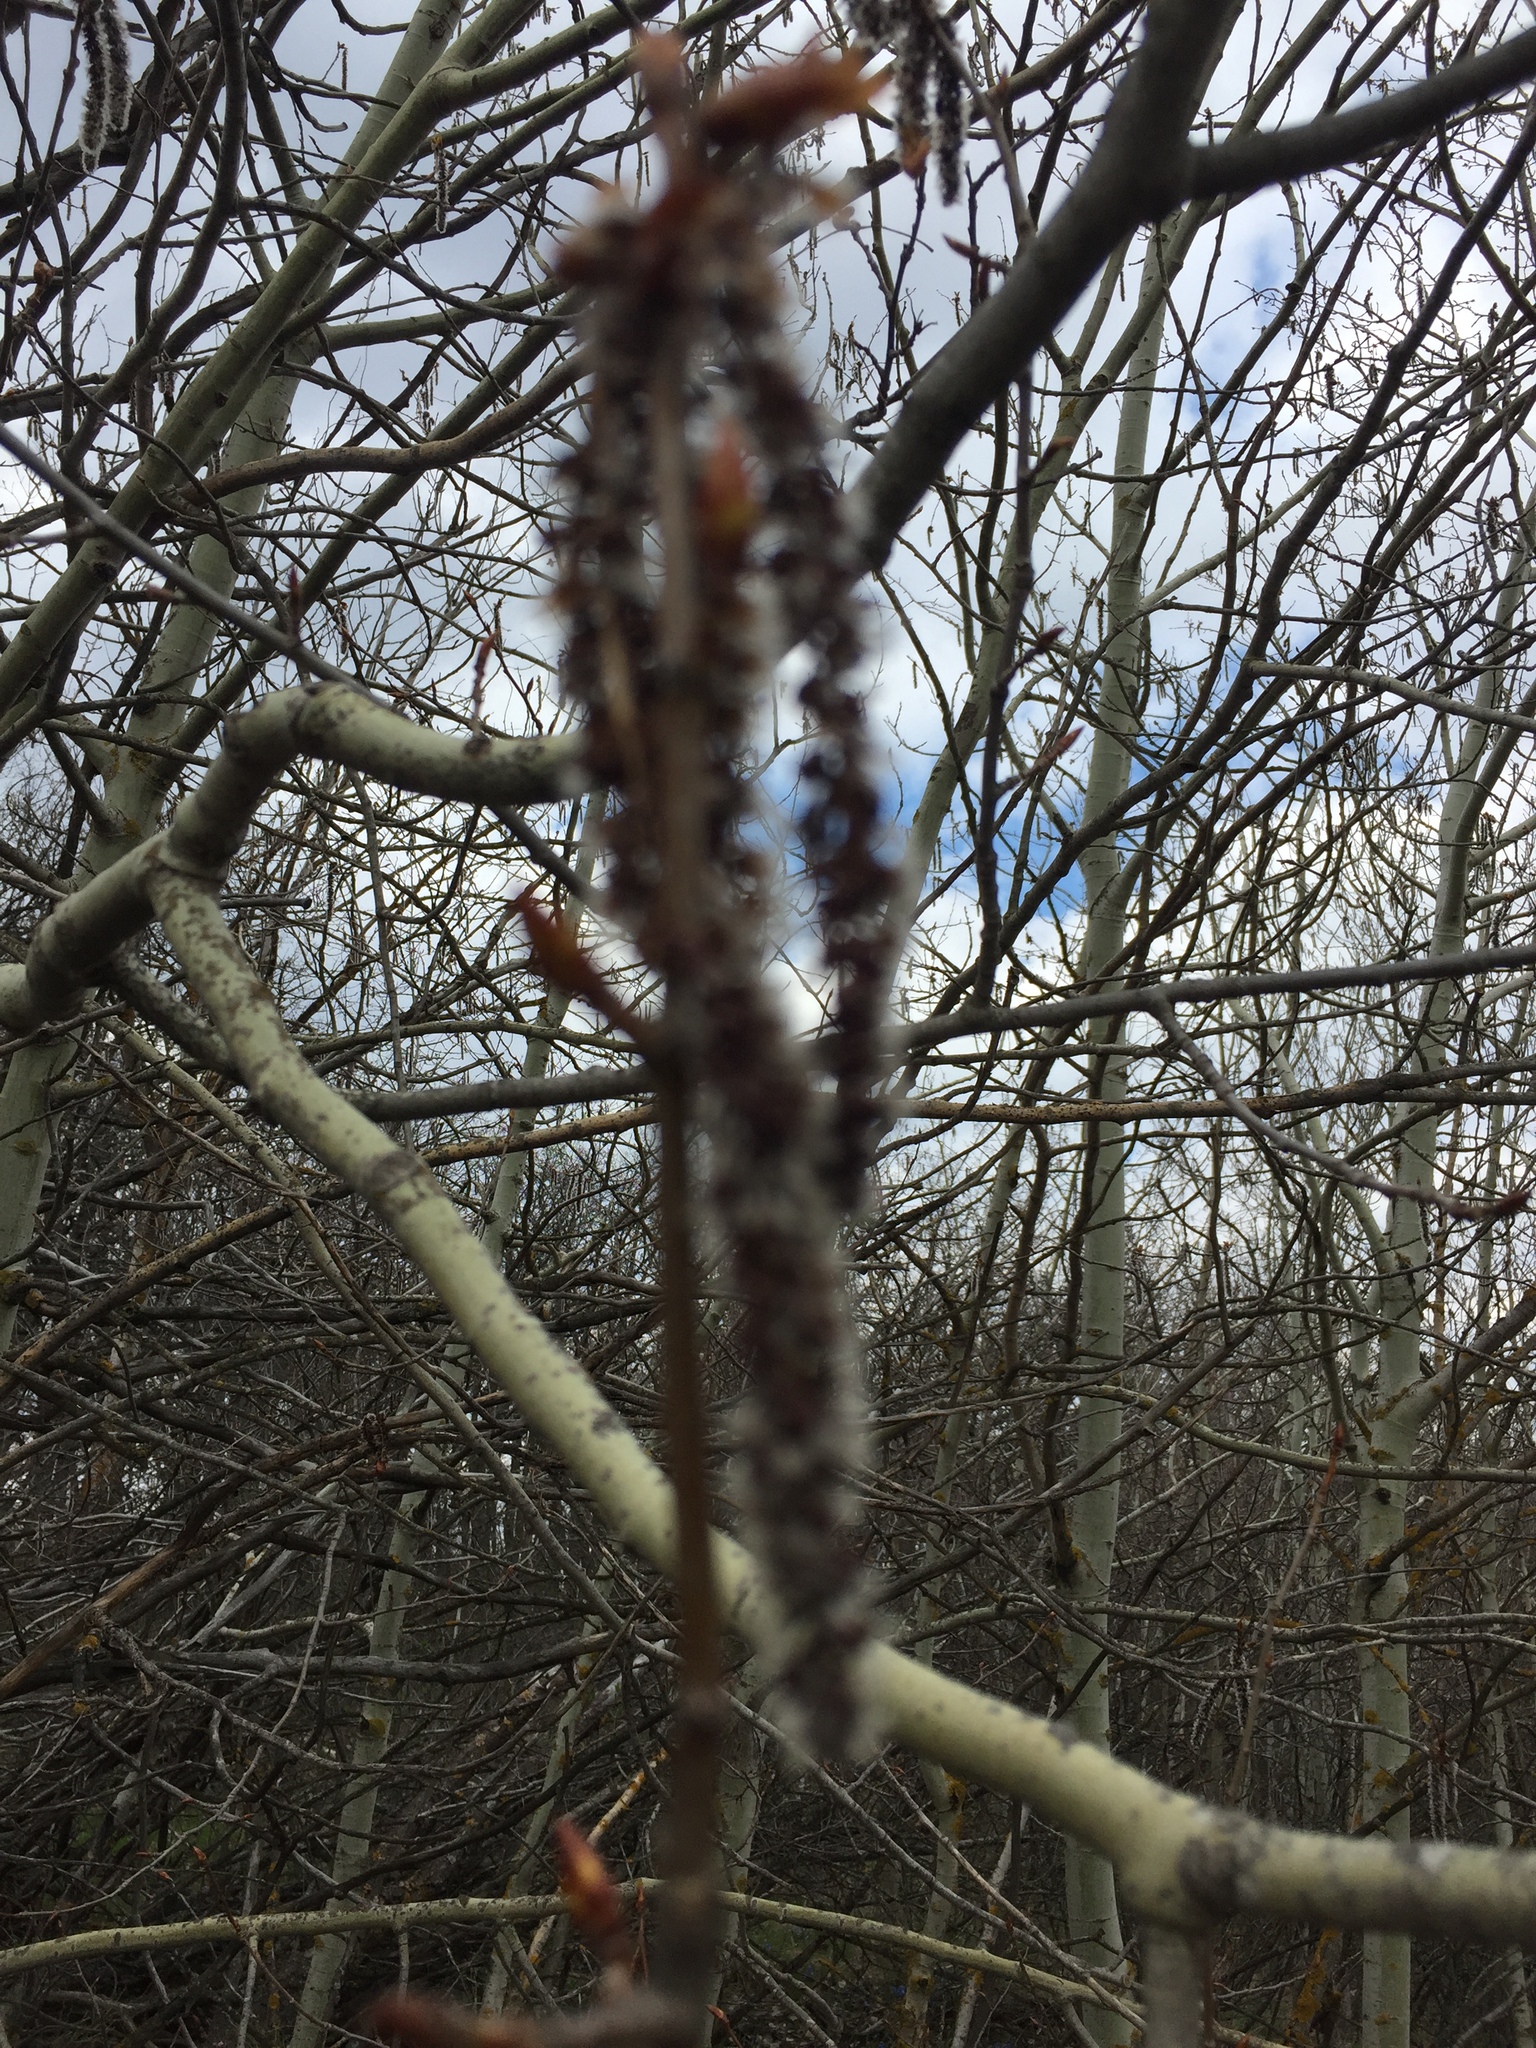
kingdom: Plantae
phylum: Tracheophyta
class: Magnoliopsida
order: Malpighiales
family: Salicaceae
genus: Populus
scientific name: Populus tremula
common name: European aspen
